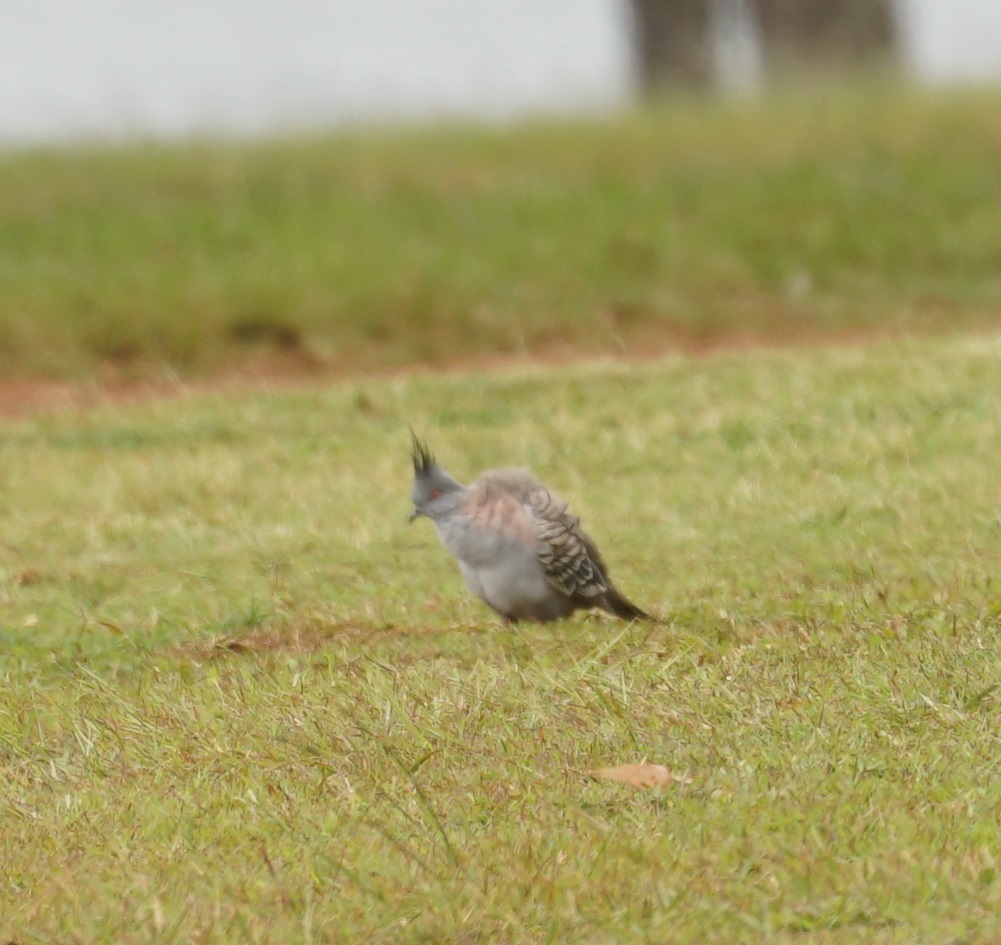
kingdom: Animalia
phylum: Chordata
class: Aves
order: Columbiformes
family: Columbidae
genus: Ocyphaps
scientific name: Ocyphaps lophotes
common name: Crested pigeon
